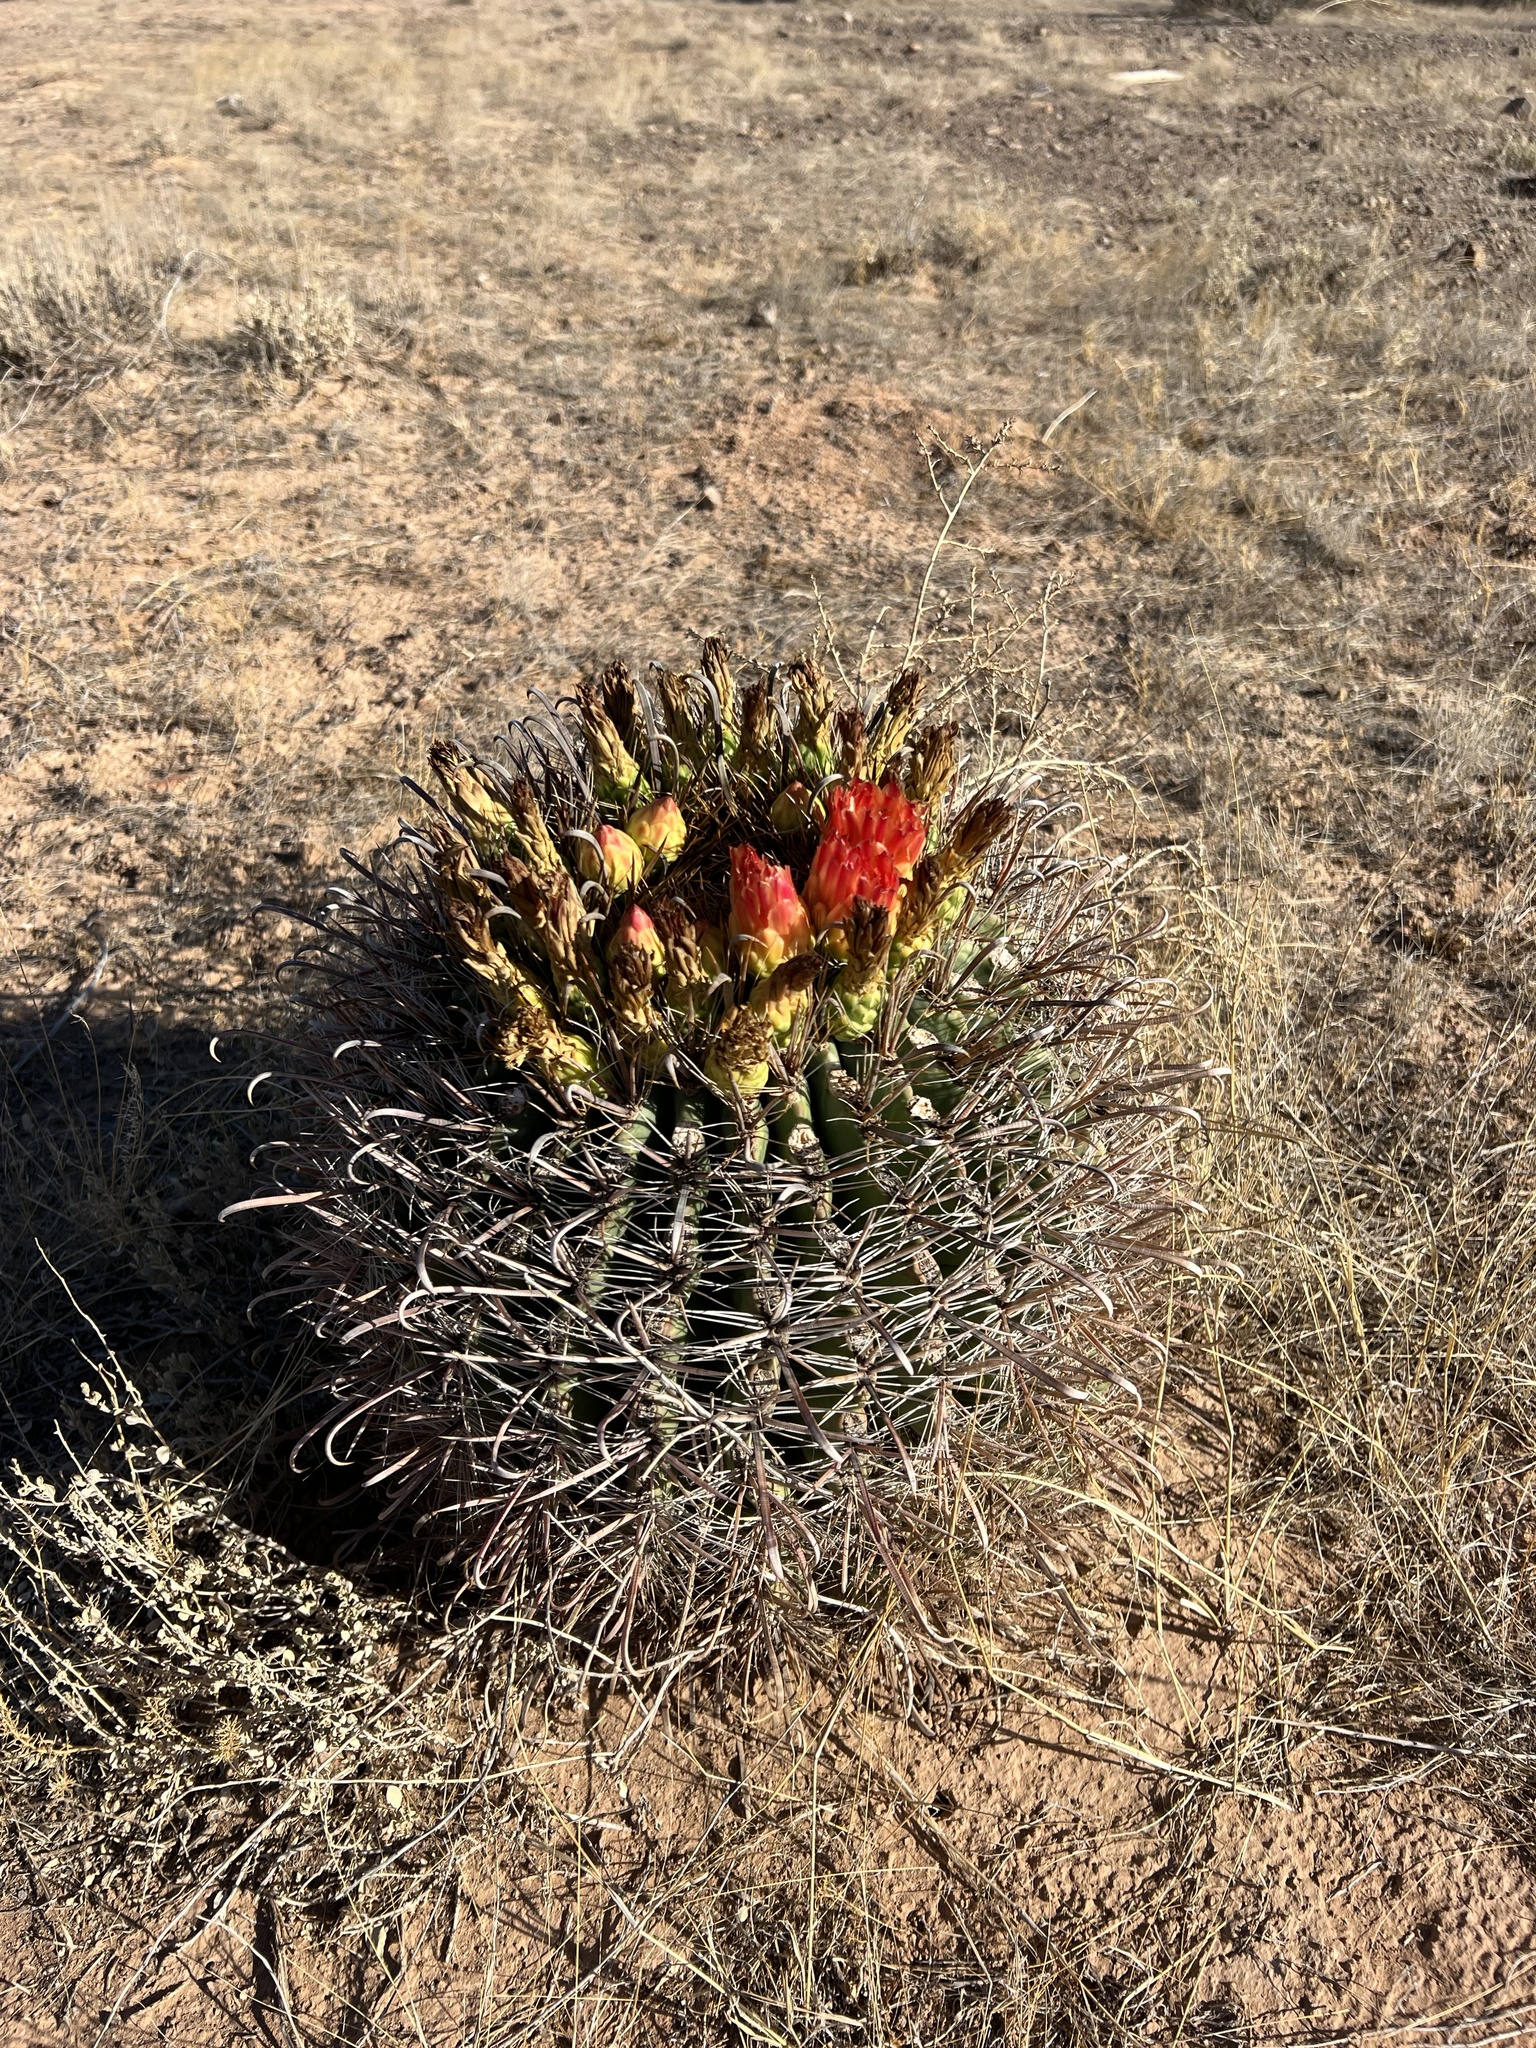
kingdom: Plantae
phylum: Tracheophyta
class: Magnoliopsida
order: Caryophyllales
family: Cactaceae
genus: Ferocactus
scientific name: Ferocactus wislizeni
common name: Candy barrel cactus
